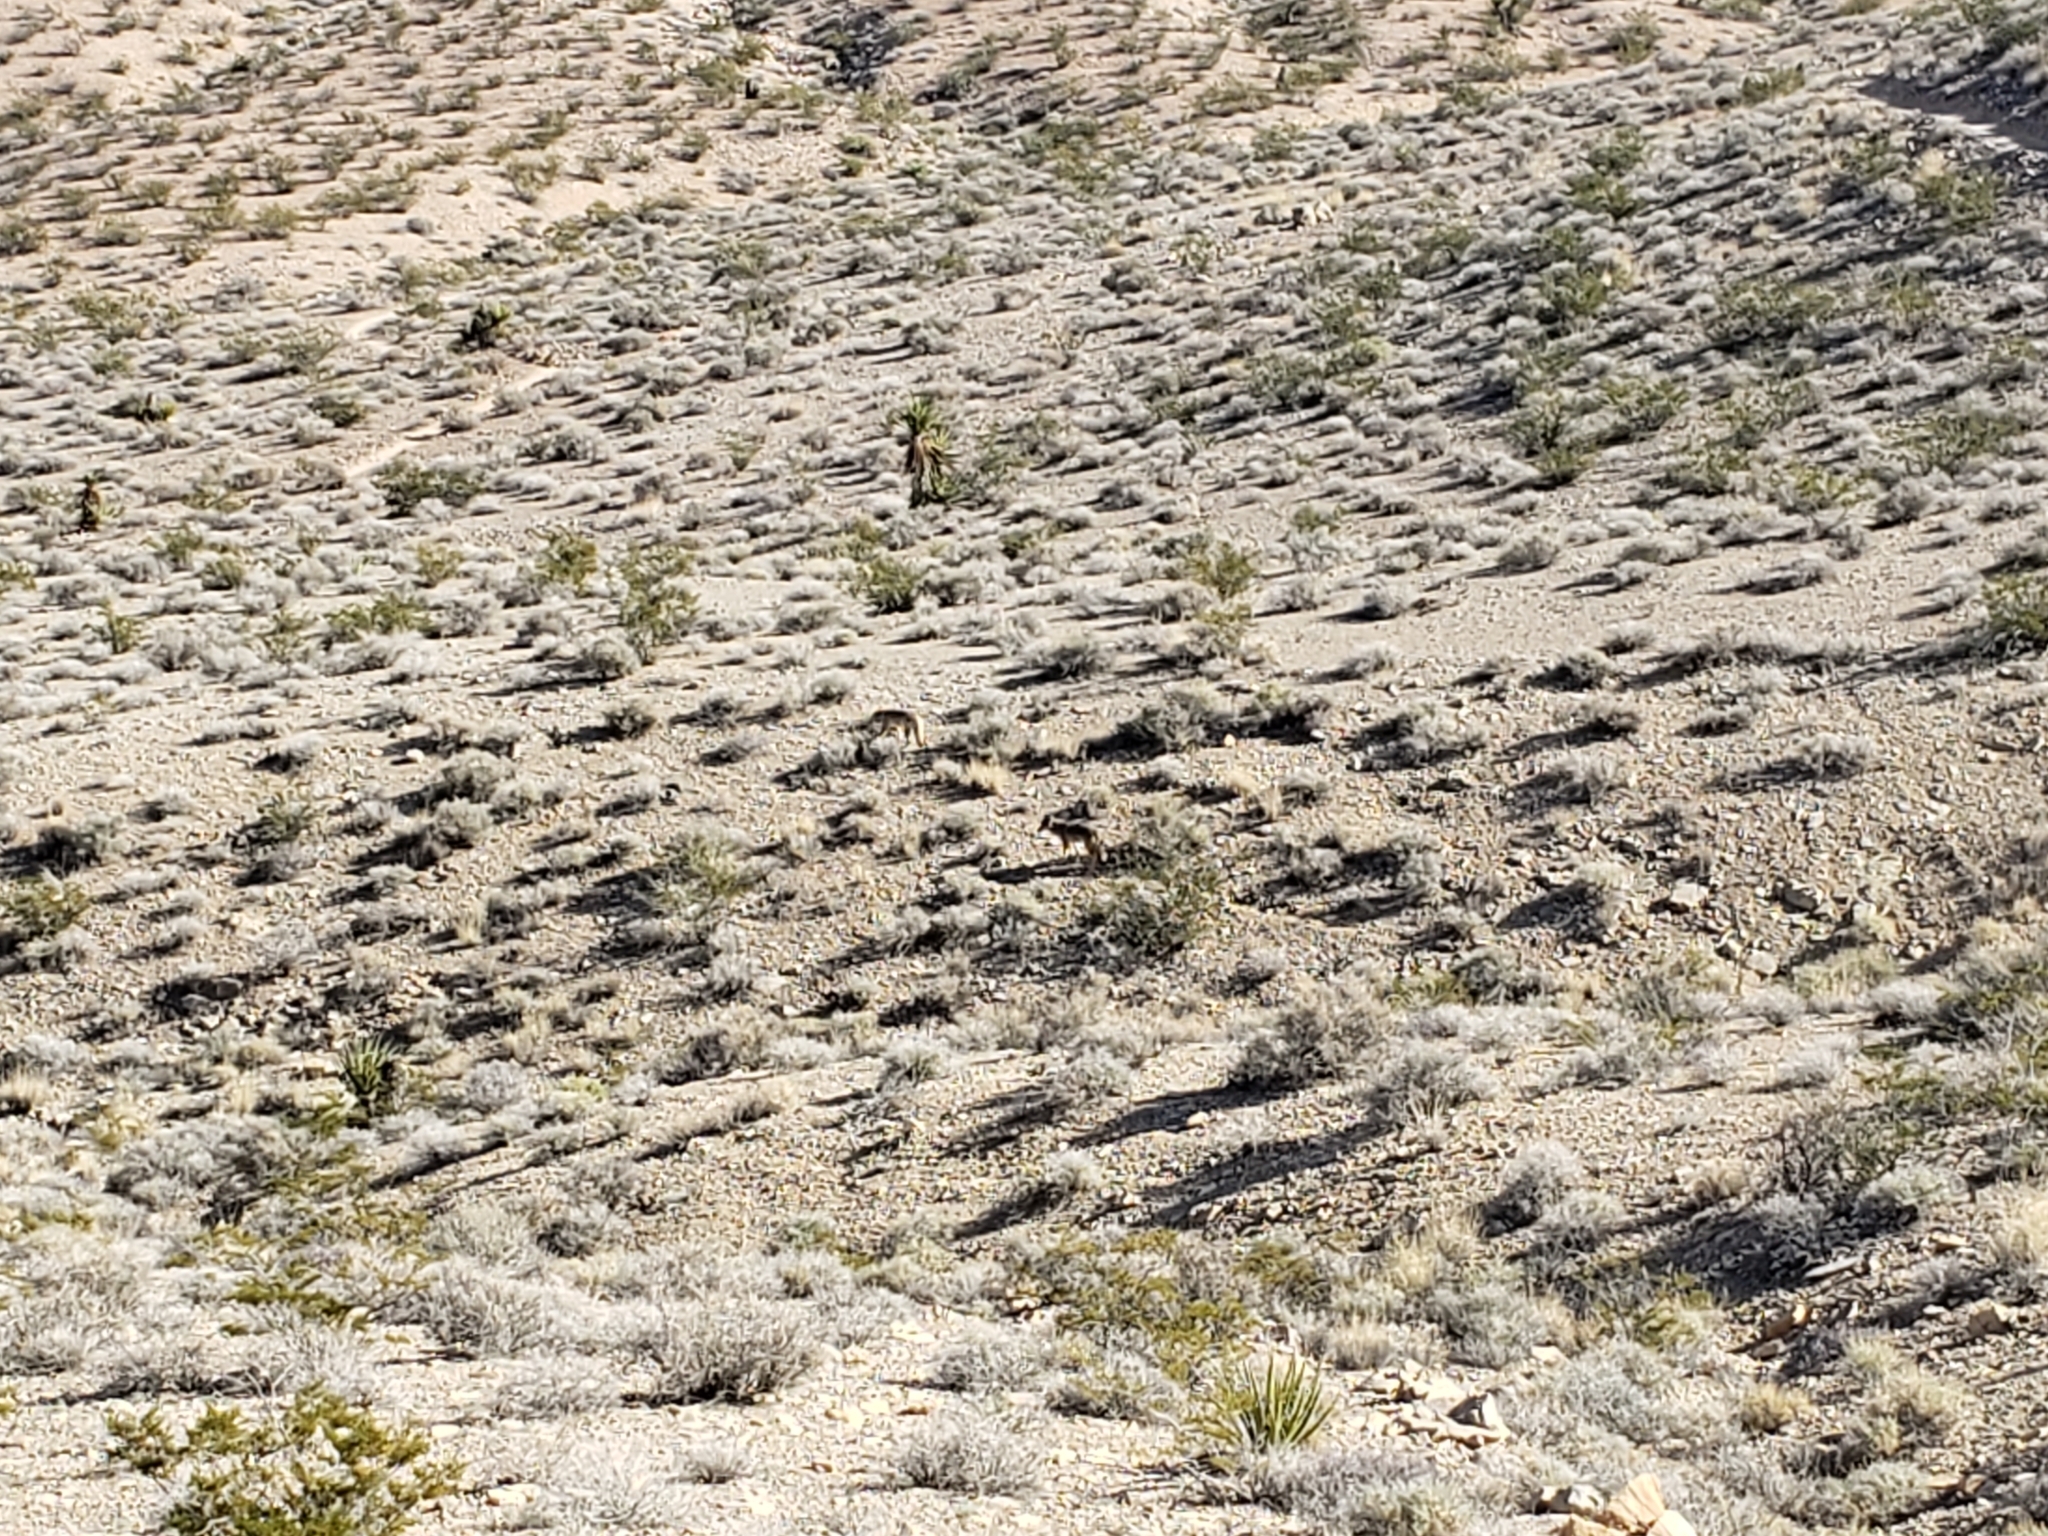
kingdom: Animalia
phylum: Chordata
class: Mammalia
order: Carnivora
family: Canidae
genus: Canis
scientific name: Canis latrans
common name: Coyote
